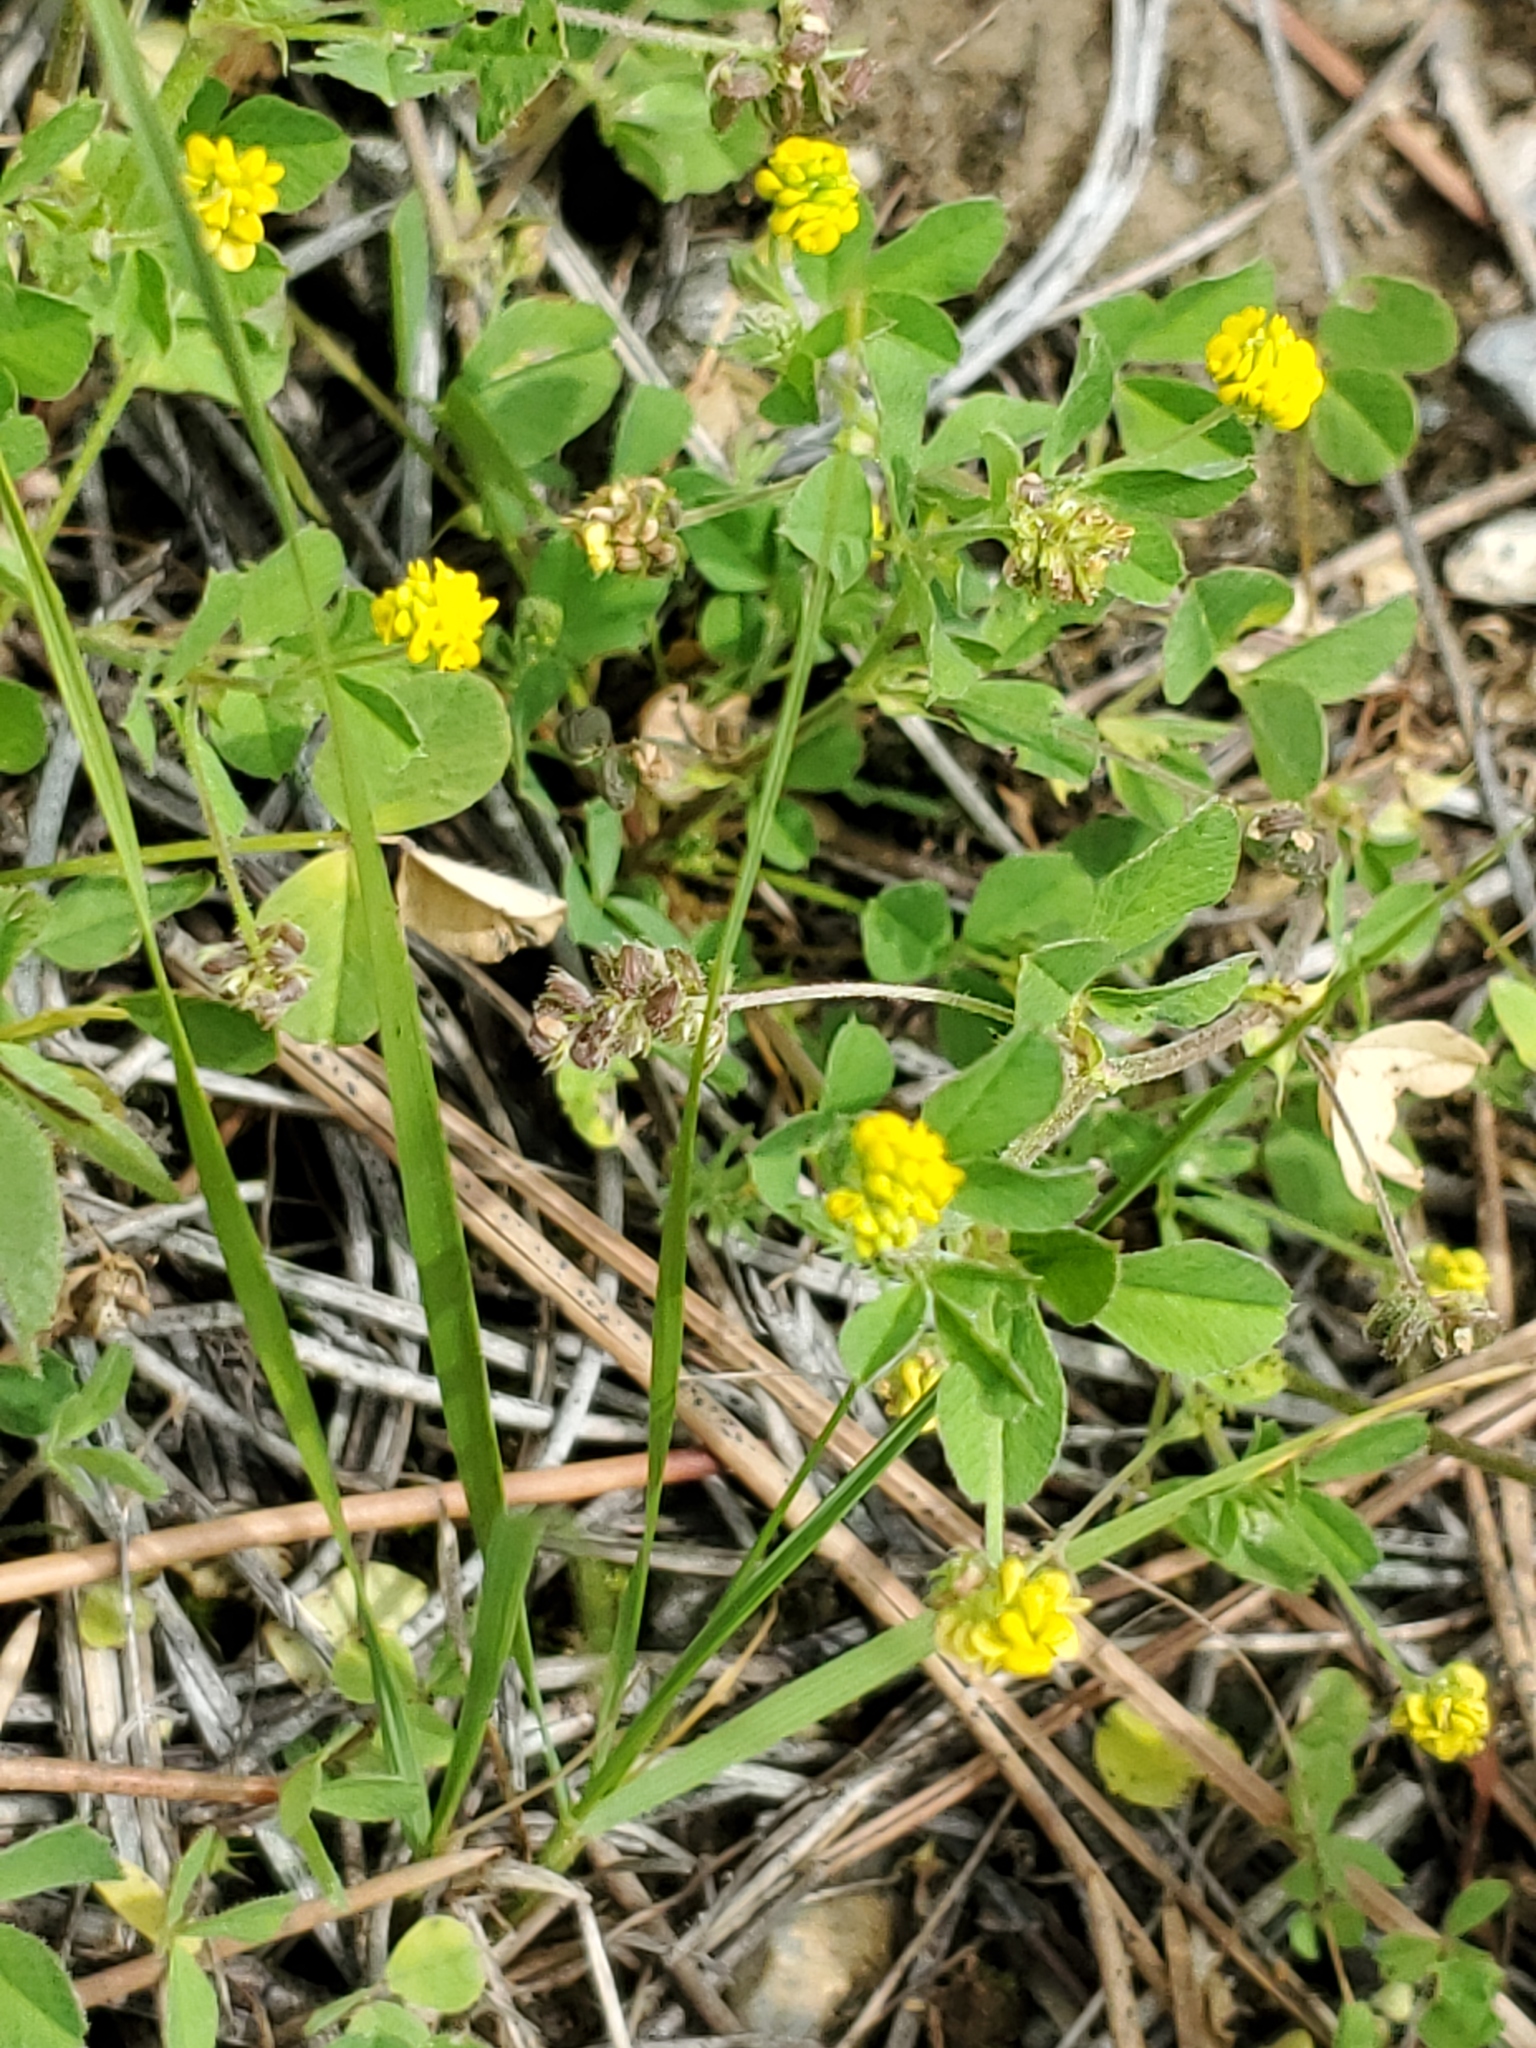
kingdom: Plantae
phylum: Tracheophyta
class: Magnoliopsida
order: Fabales
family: Fabaceae
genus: Medicago
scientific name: Medicago lupulina
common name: Black medick
